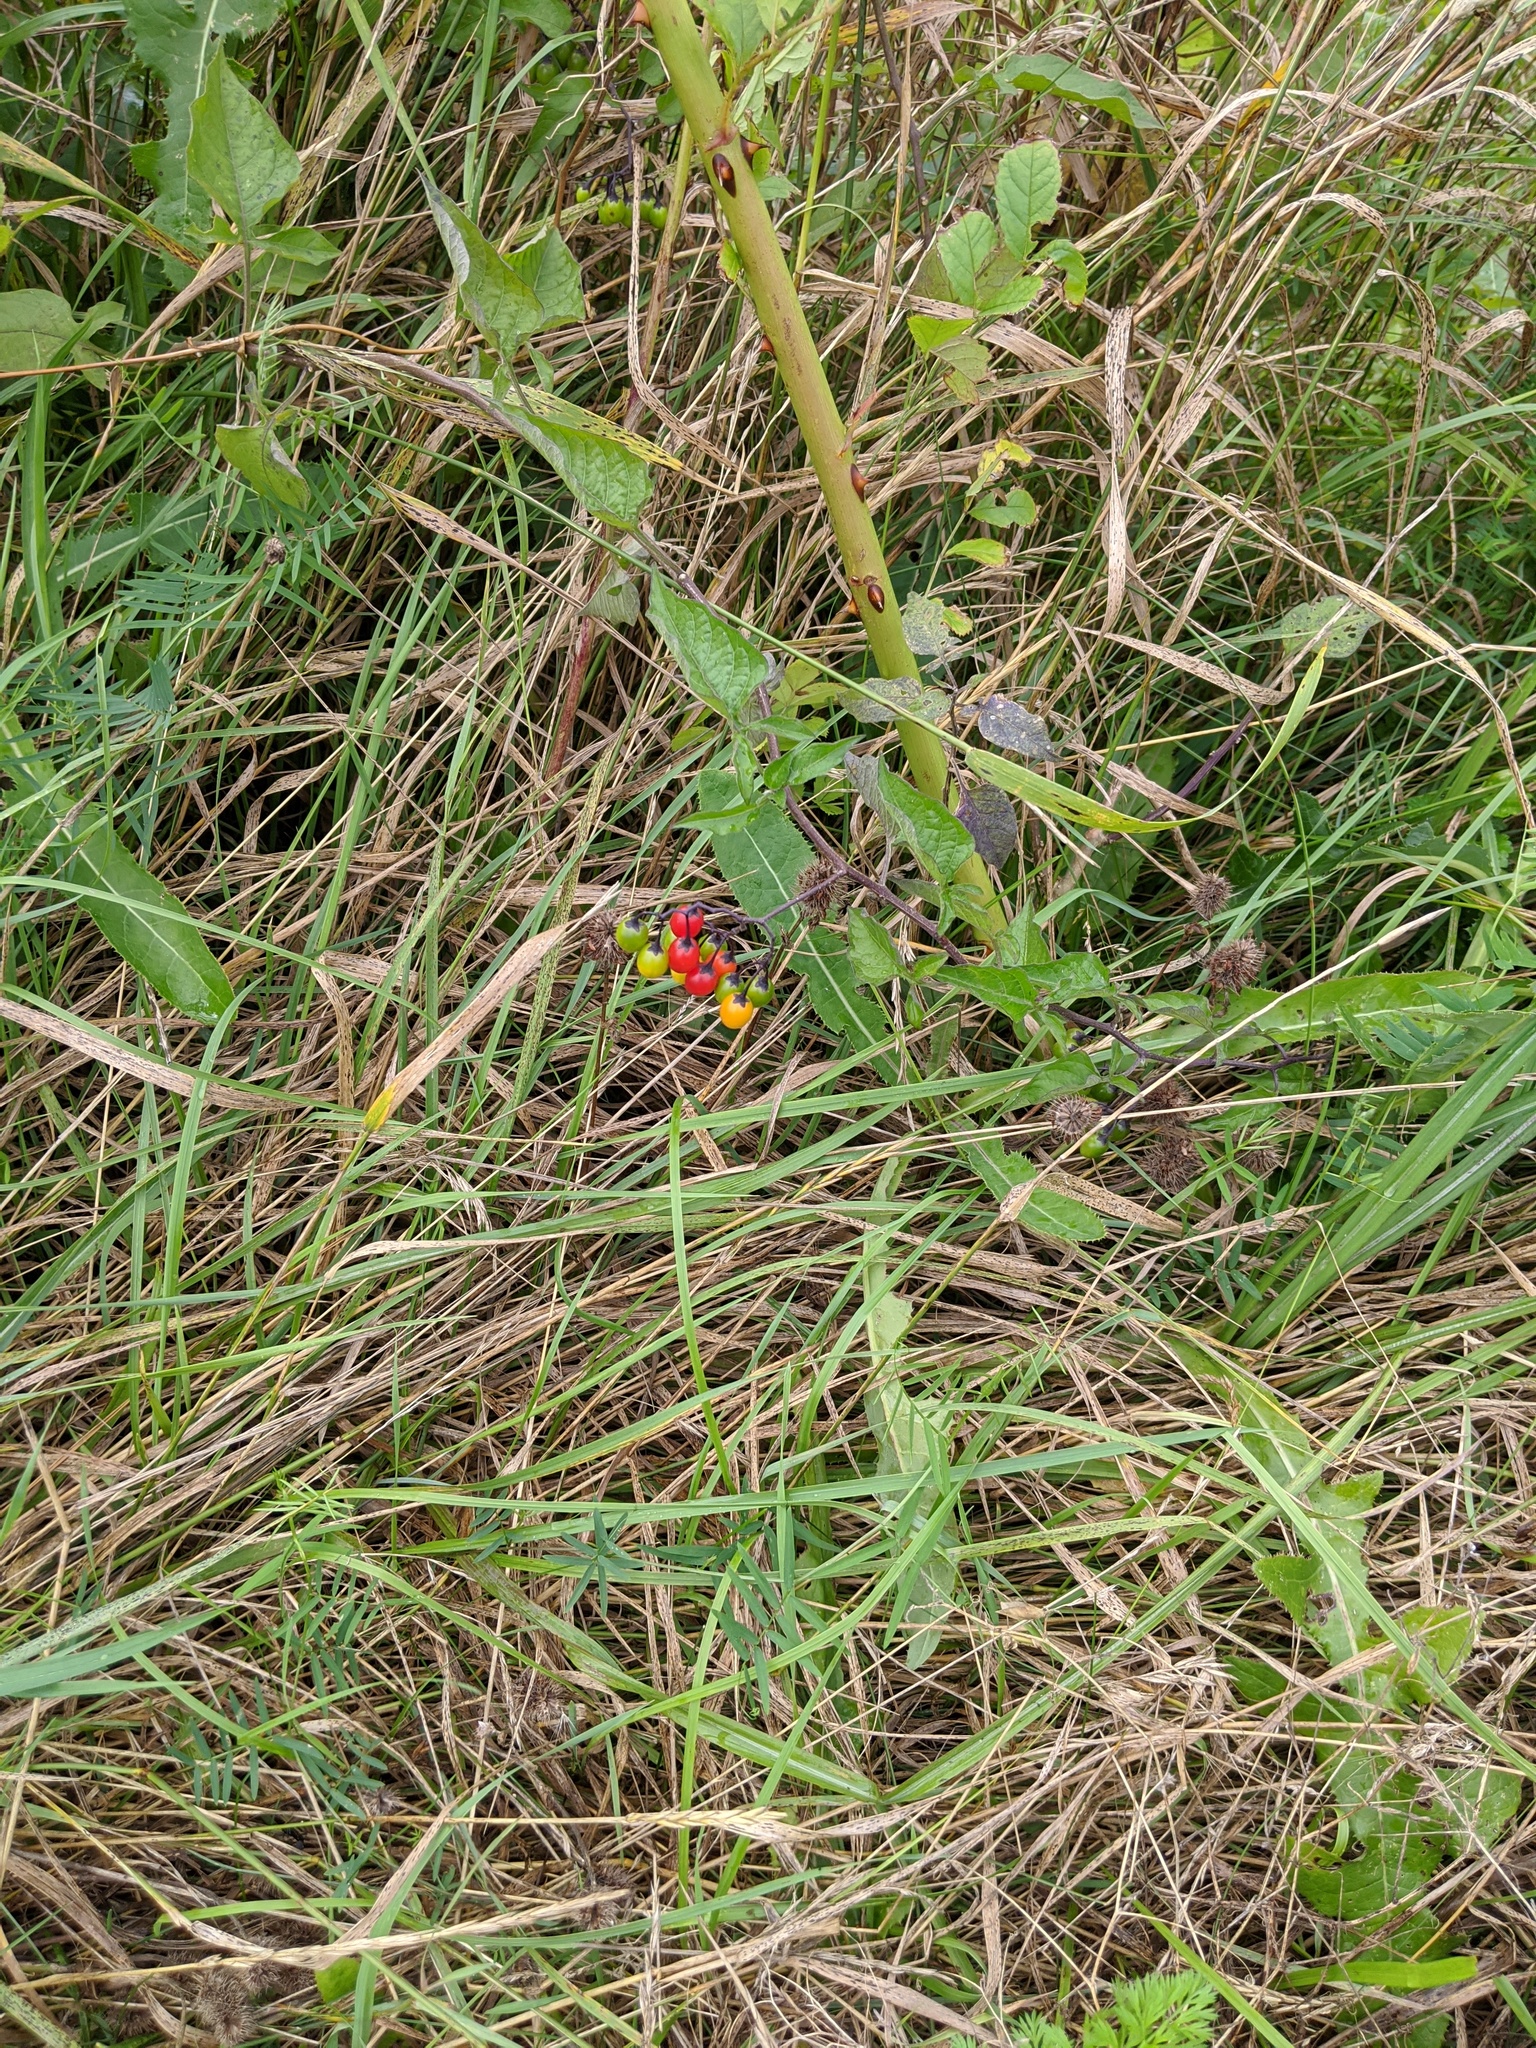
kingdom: Plantae
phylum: Tracheophyta
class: Magnoliopsida
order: Solanales
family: Solanaceae
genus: Solanum
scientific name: Solanum dulcamara
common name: Climbing nightshade
